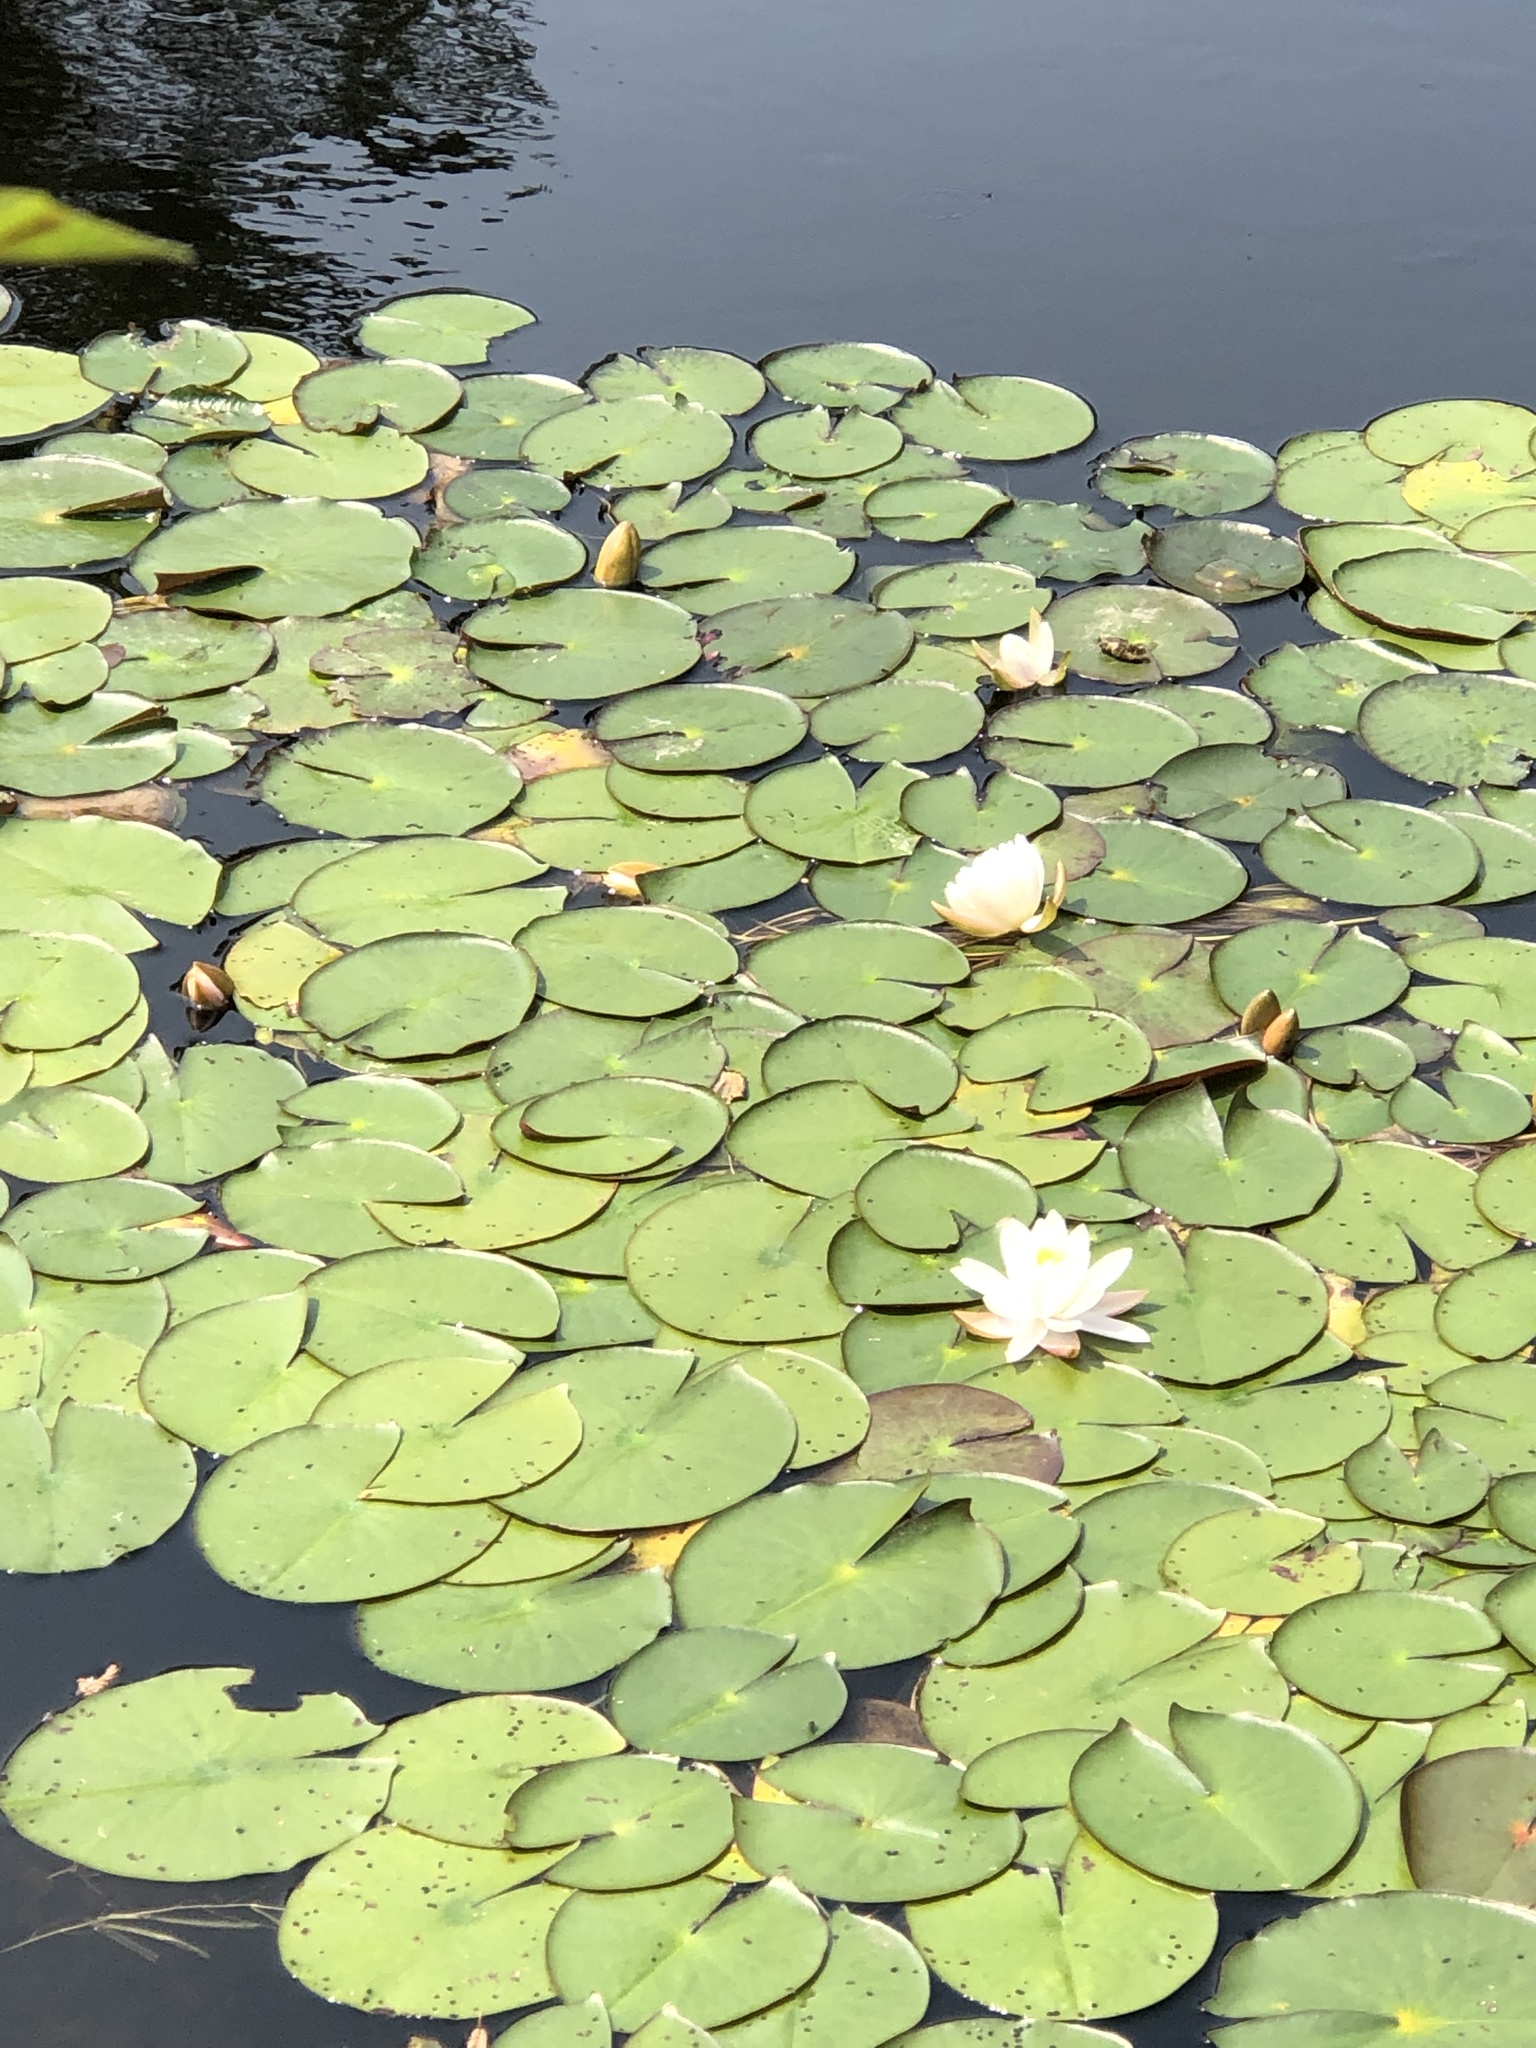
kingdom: Plantae
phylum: Tracheophyta
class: Magnoliopsida
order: Nymphaeales
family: Nymphaeaceae
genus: Nymphaea
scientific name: Nymphaea odorata
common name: Fragrant water-lily
